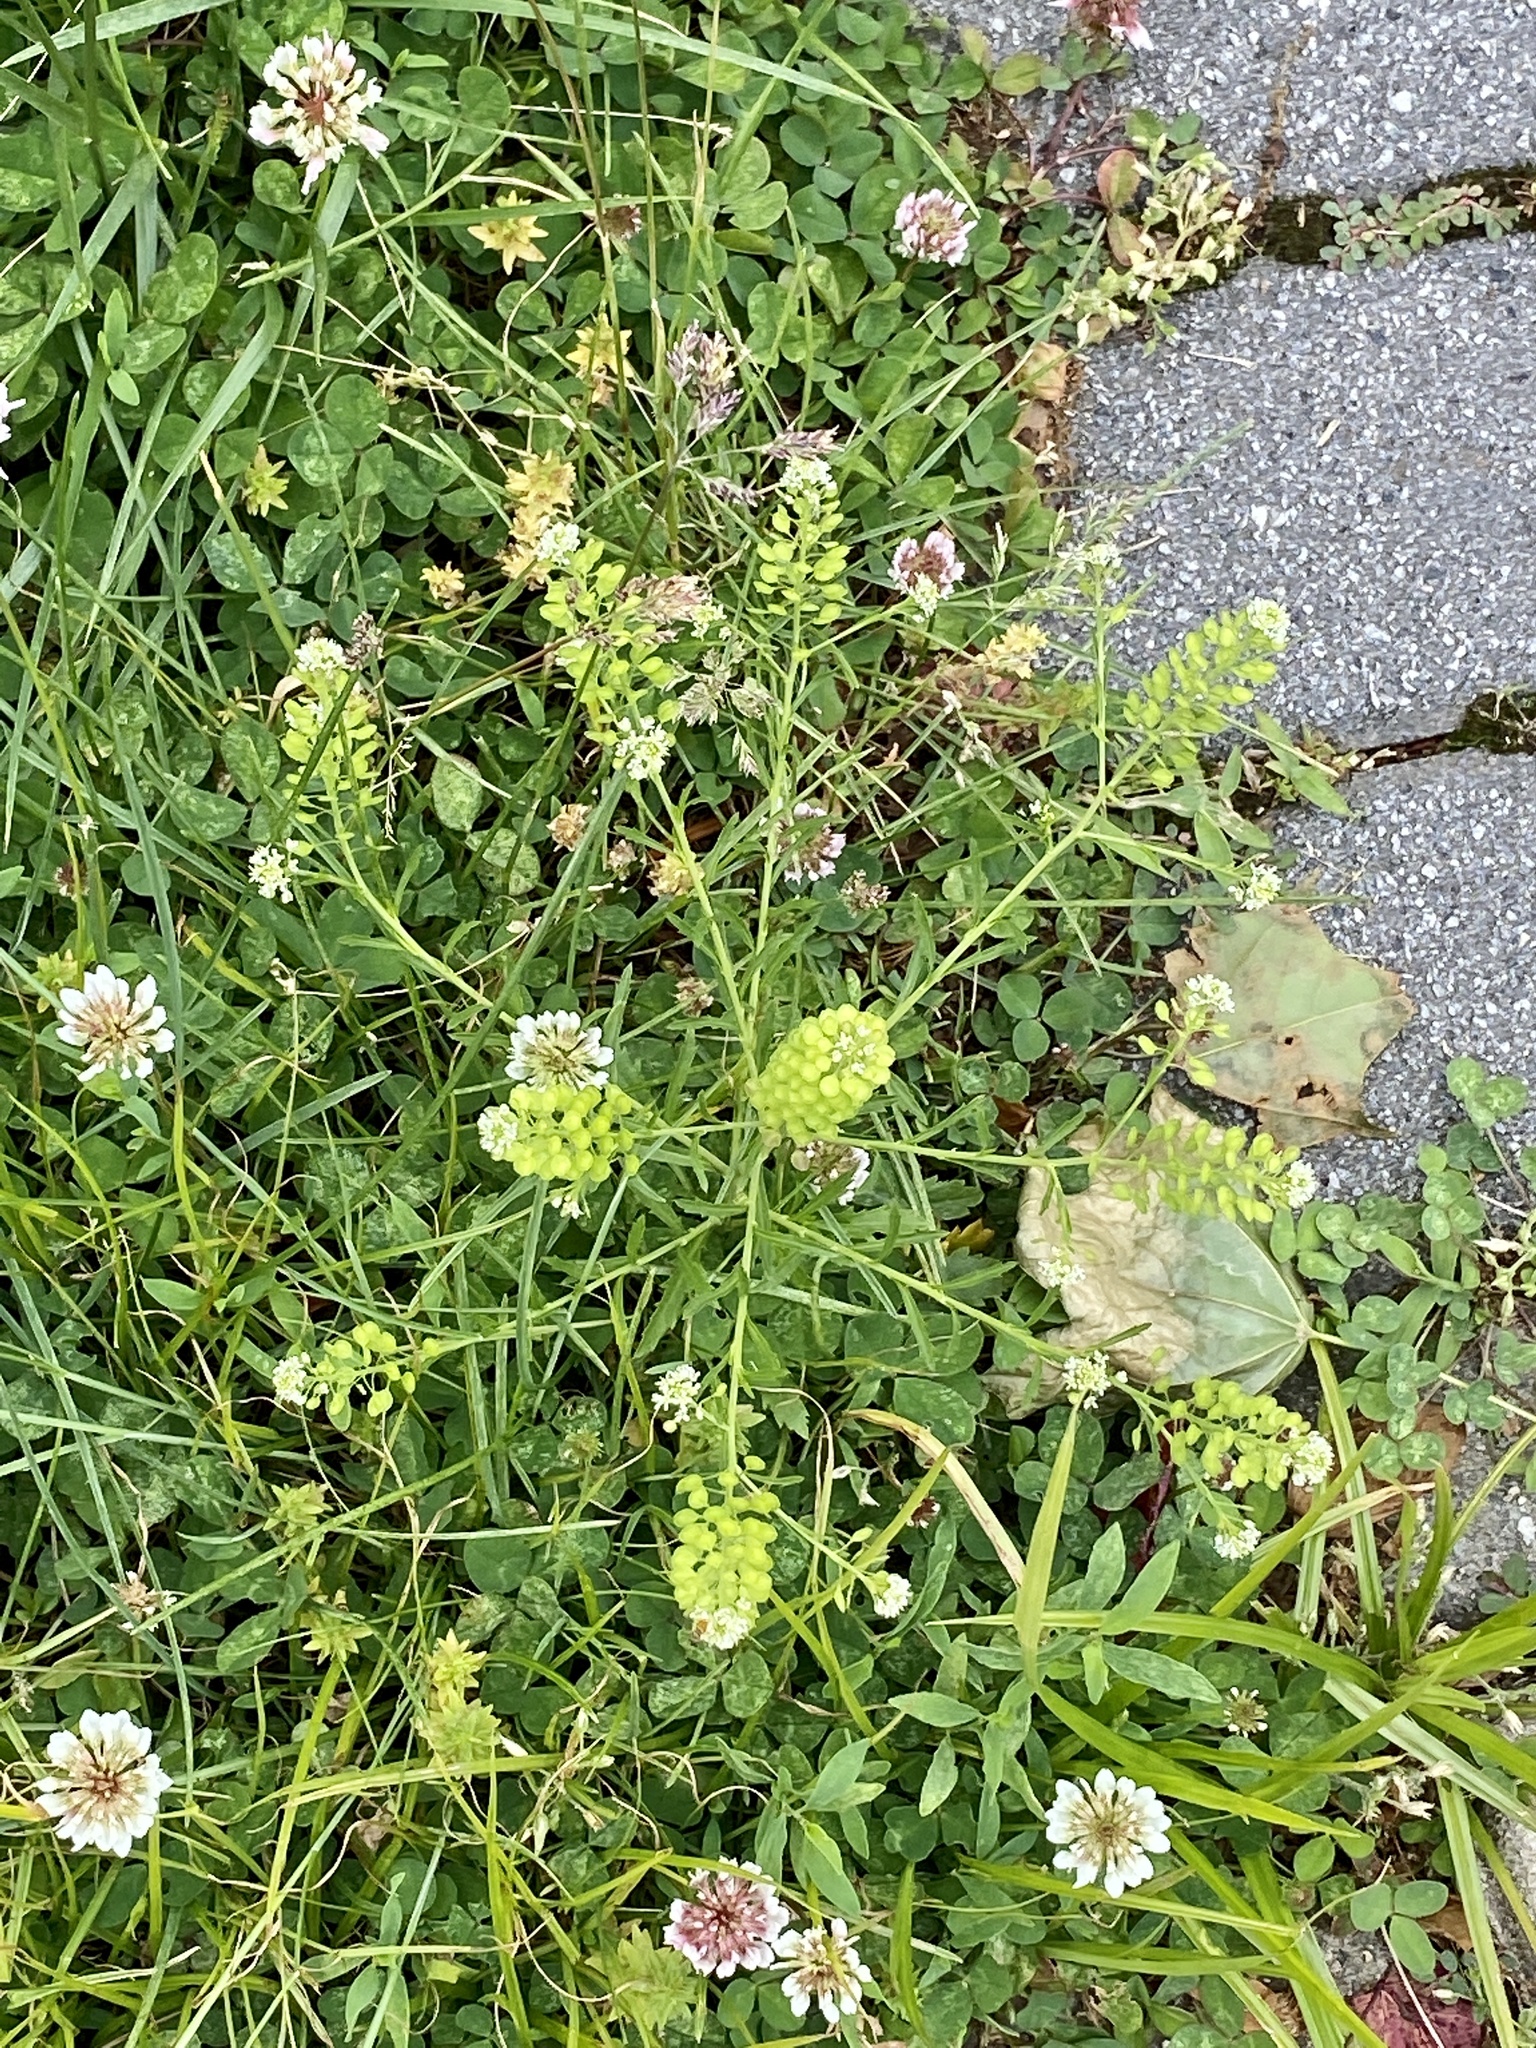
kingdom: Plantae
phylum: Tracheophyta
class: Magnoliopsida
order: Brassicales
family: Brassicaceae
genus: Lepidium
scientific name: Lepidium virginicum
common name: Least pepperwort
